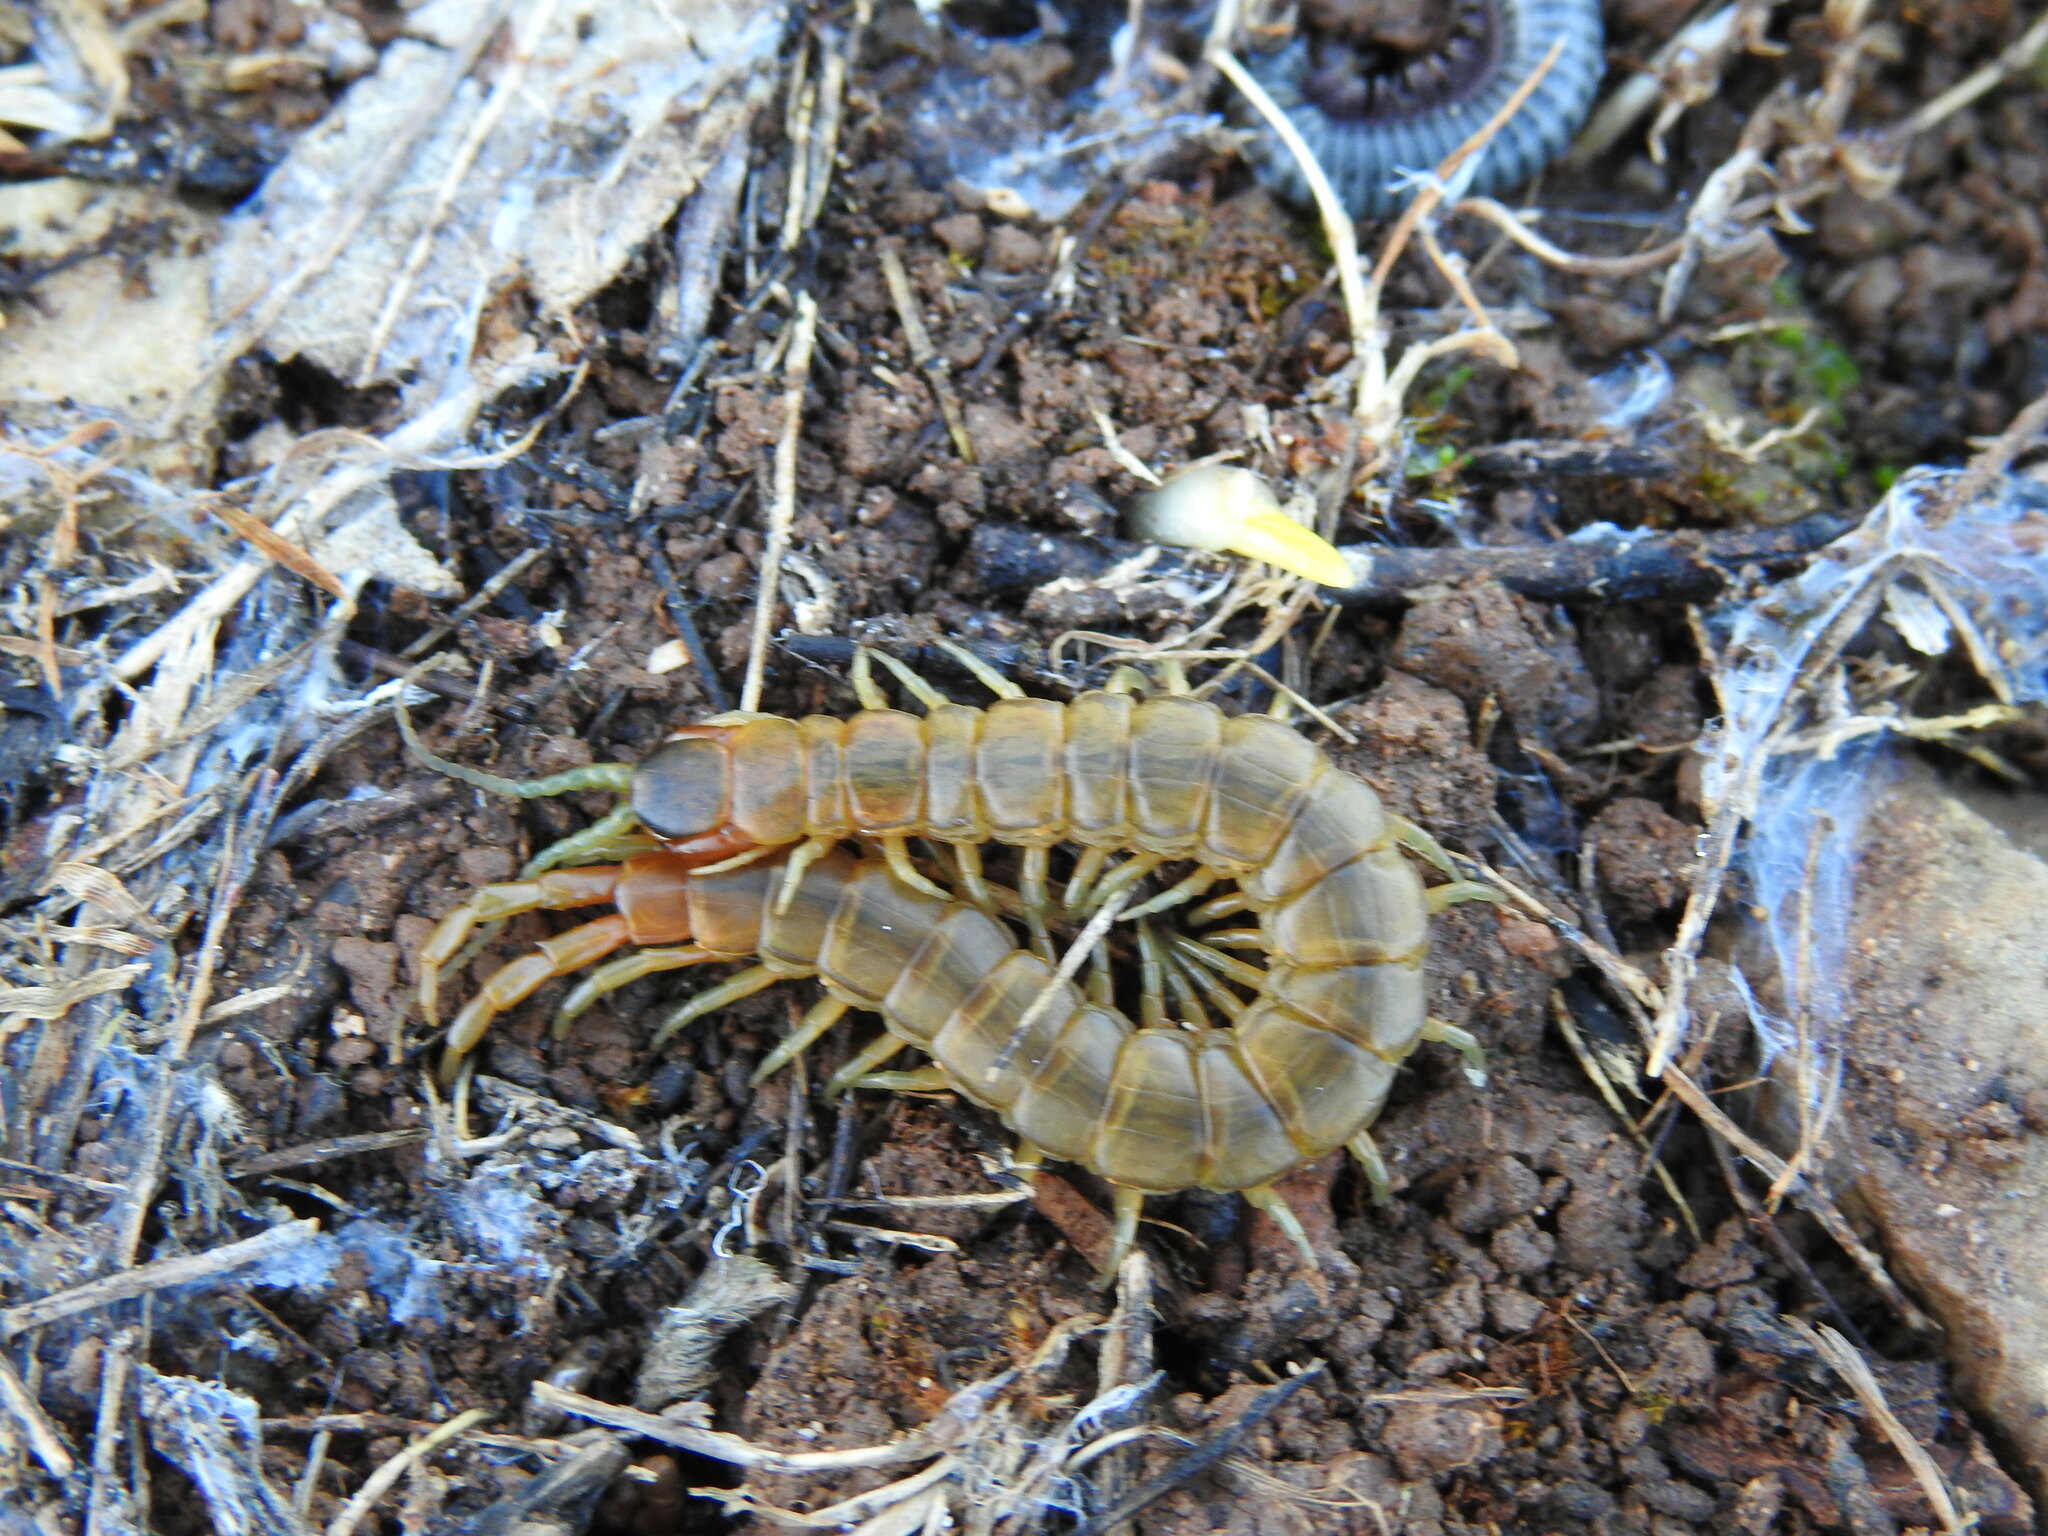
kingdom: Animalia
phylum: Arthropoda
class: Chilopoda
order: Scolopendromorpha
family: Scolopendridae
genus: Scolopendra
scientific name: Scolopendra oraniensis
